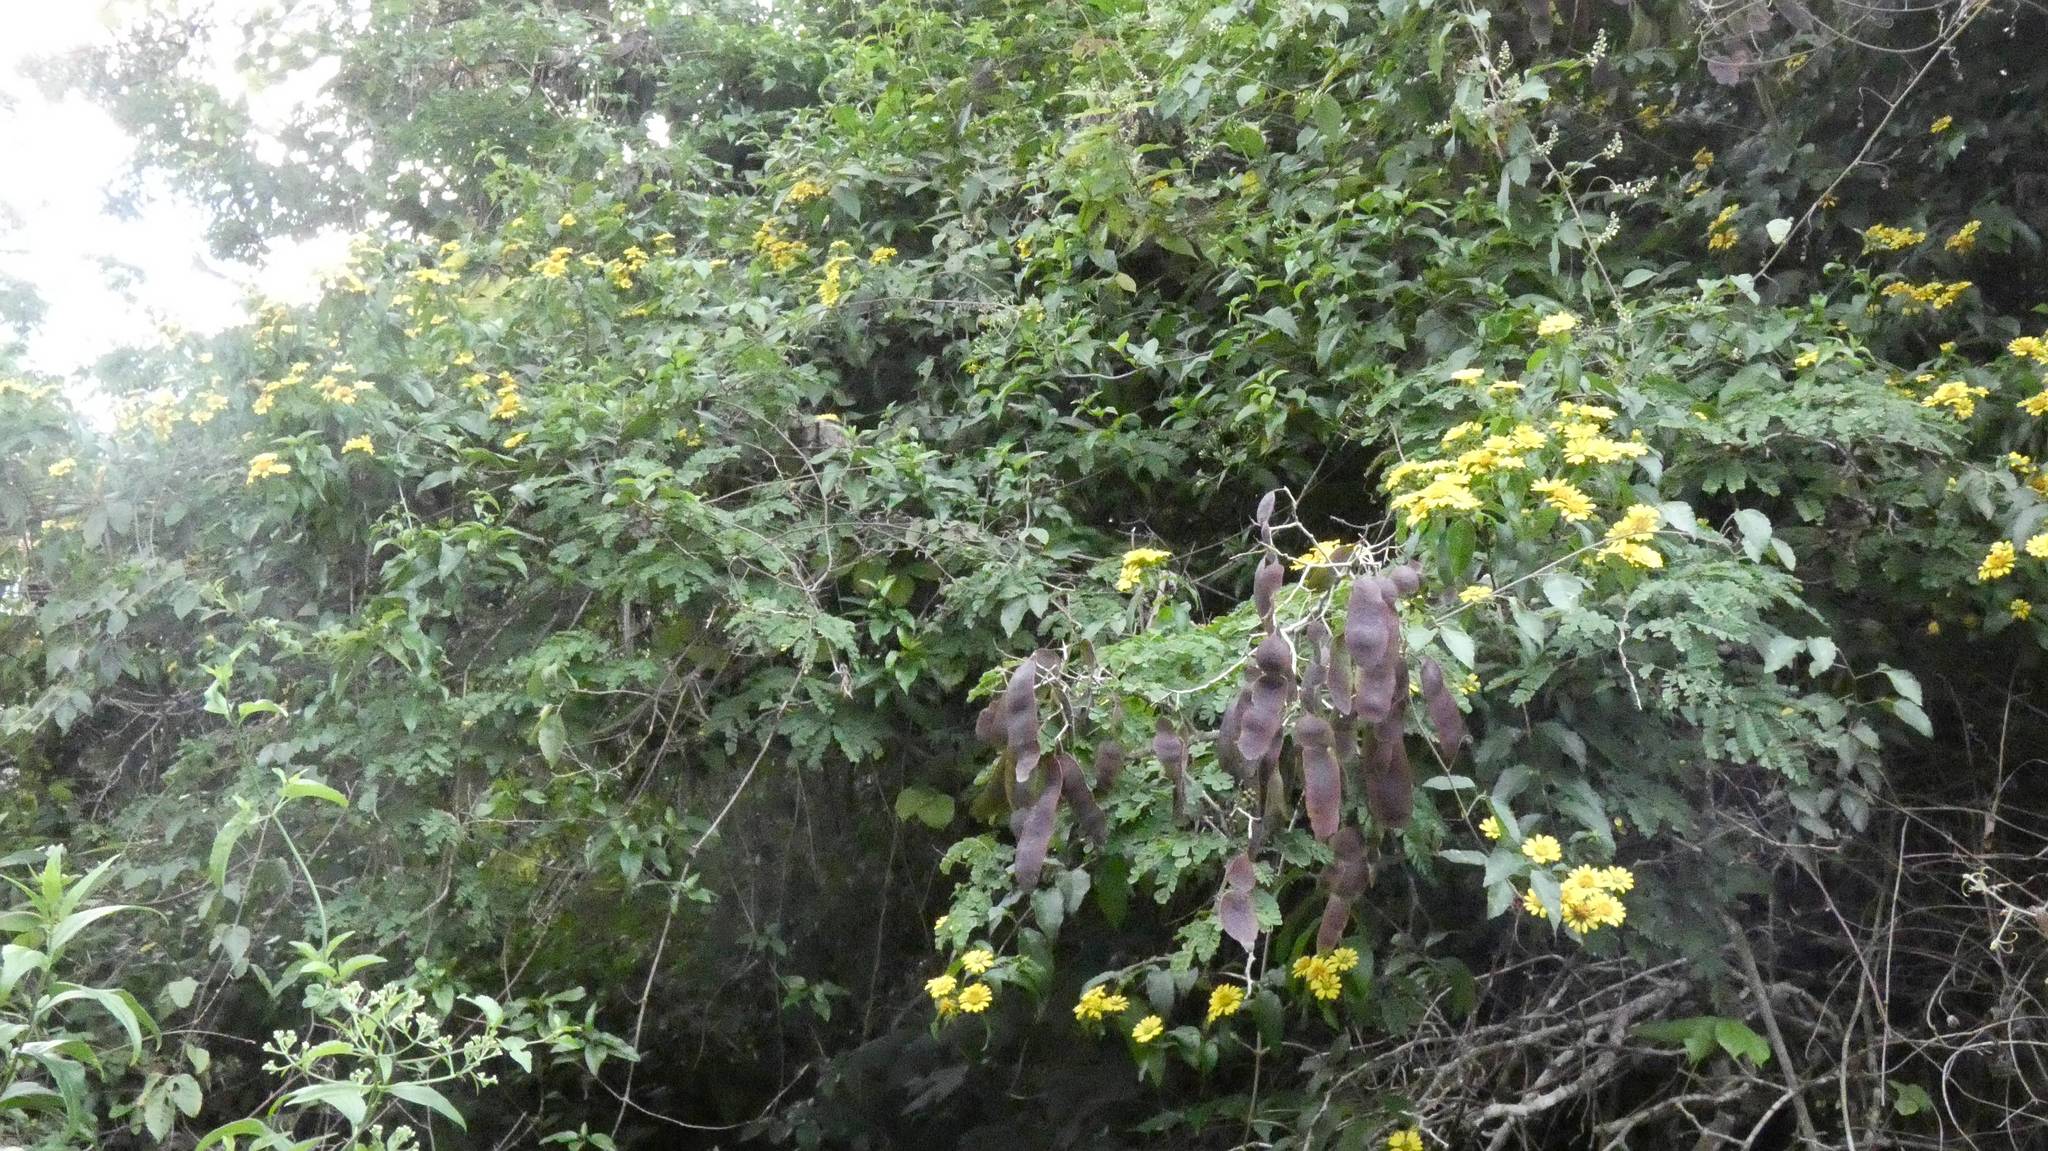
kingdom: Plantae
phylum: Tracheophyta
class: Magnoliopsida
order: Asterales
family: Asteraceae
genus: Otopappus
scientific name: Otopappus scaber
